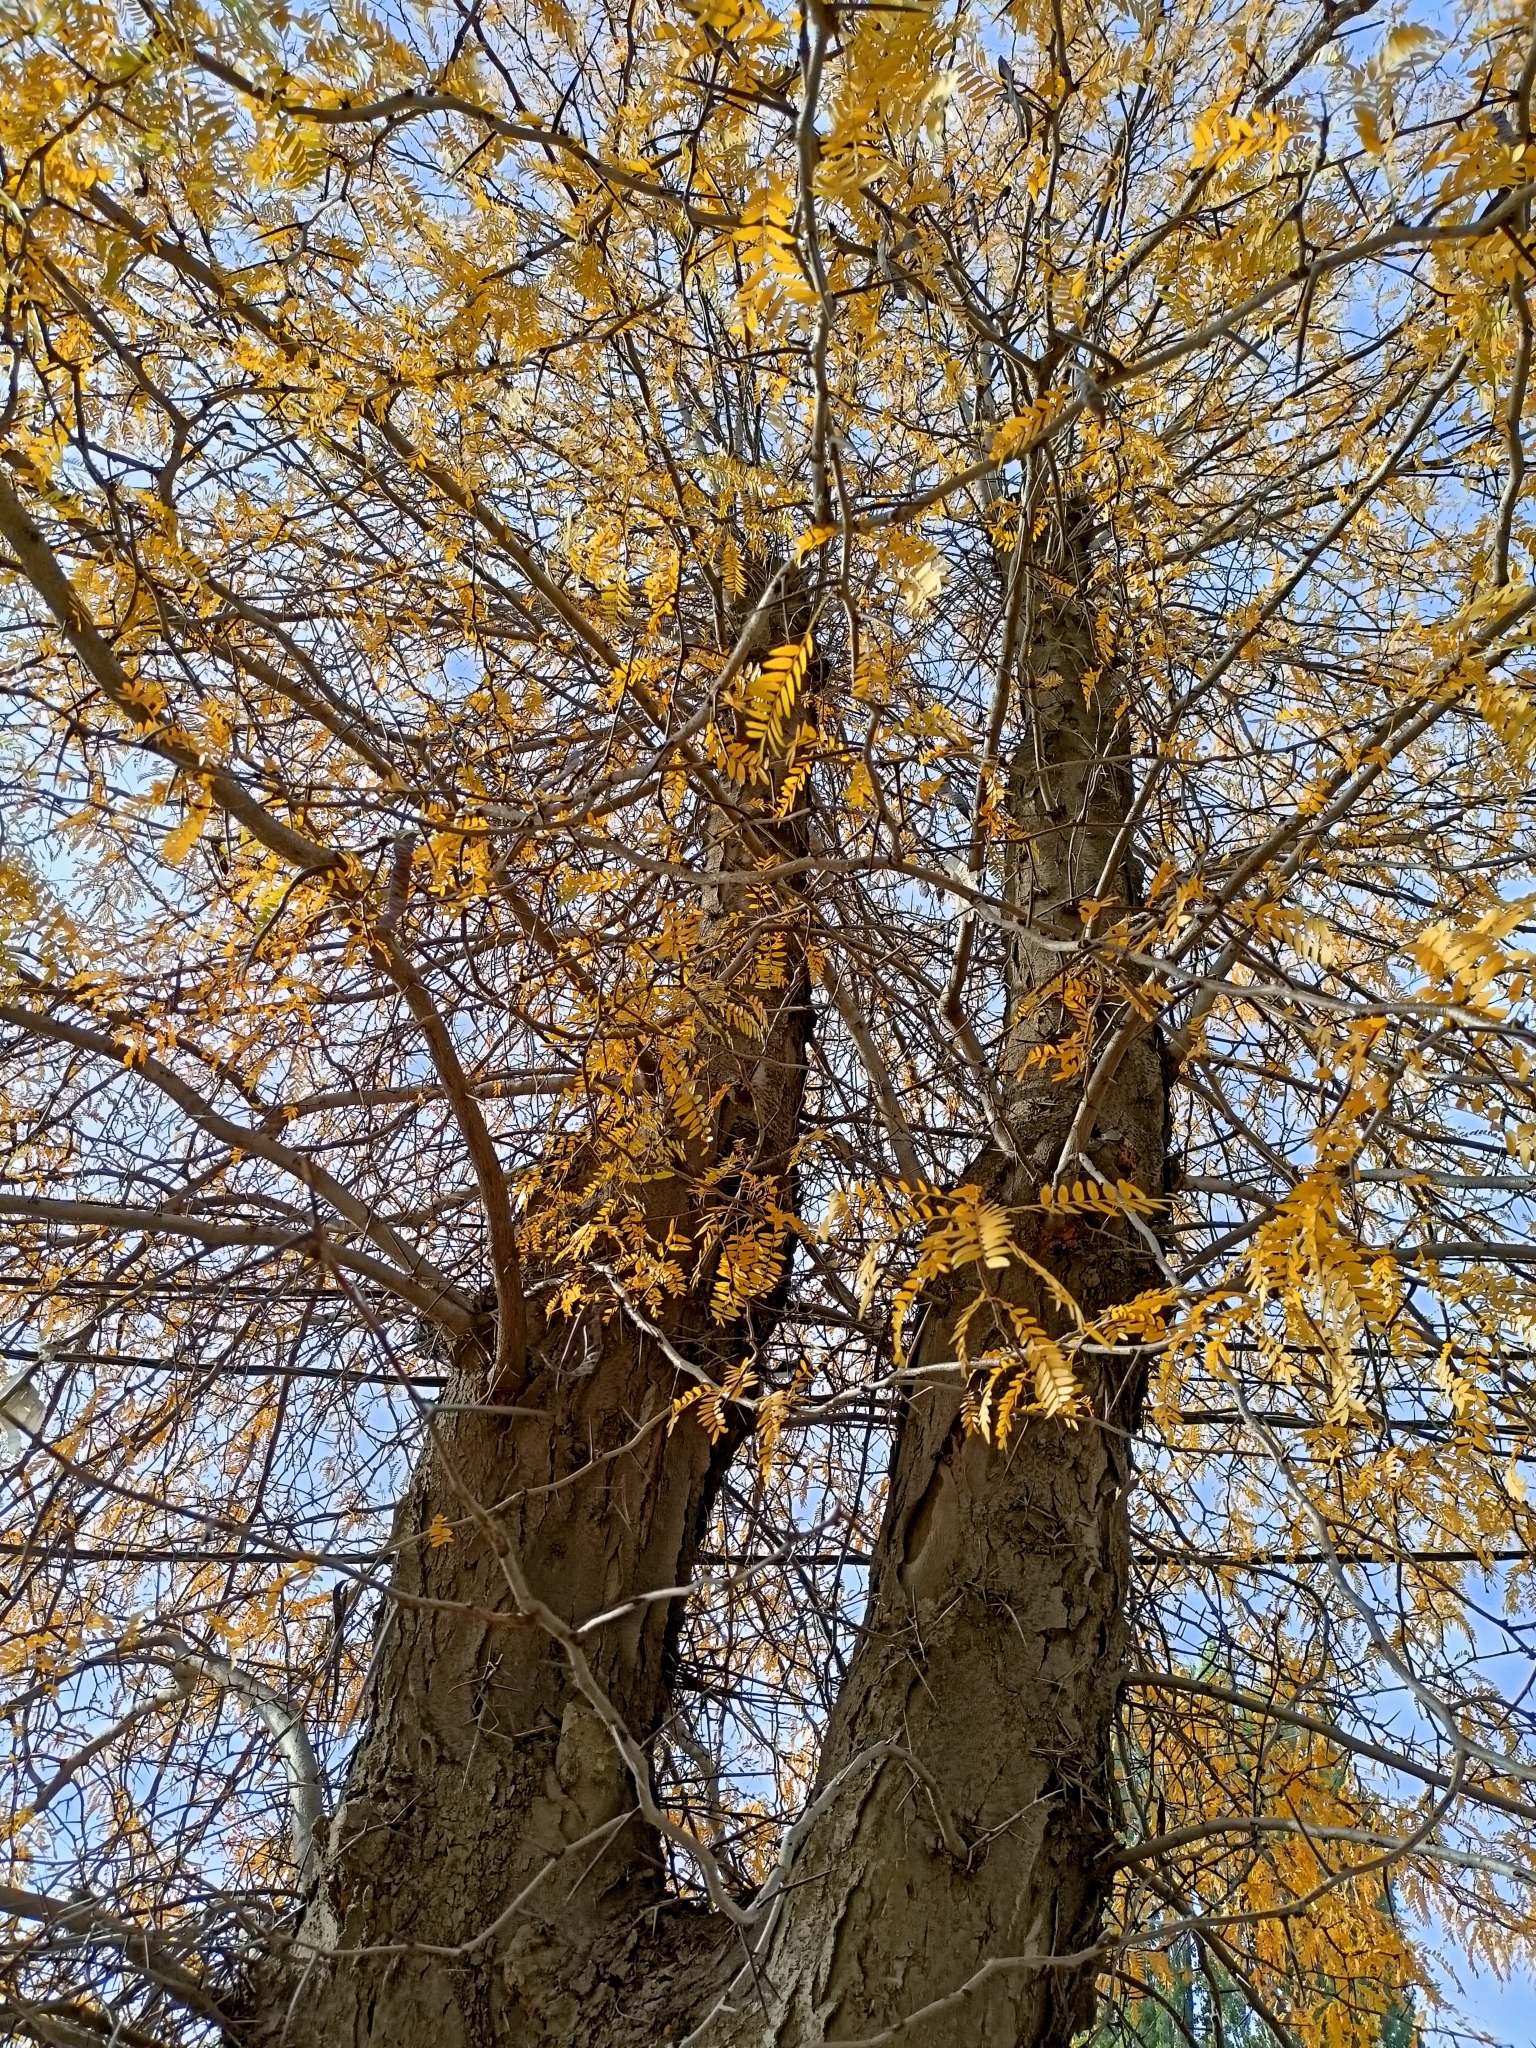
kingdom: Plantae
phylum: Tracheophyta
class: Magnoliopsida
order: Fabales
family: Fabaceae
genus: Gleditsia
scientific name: Gleditsia triacanthos
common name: Common honeylocust
